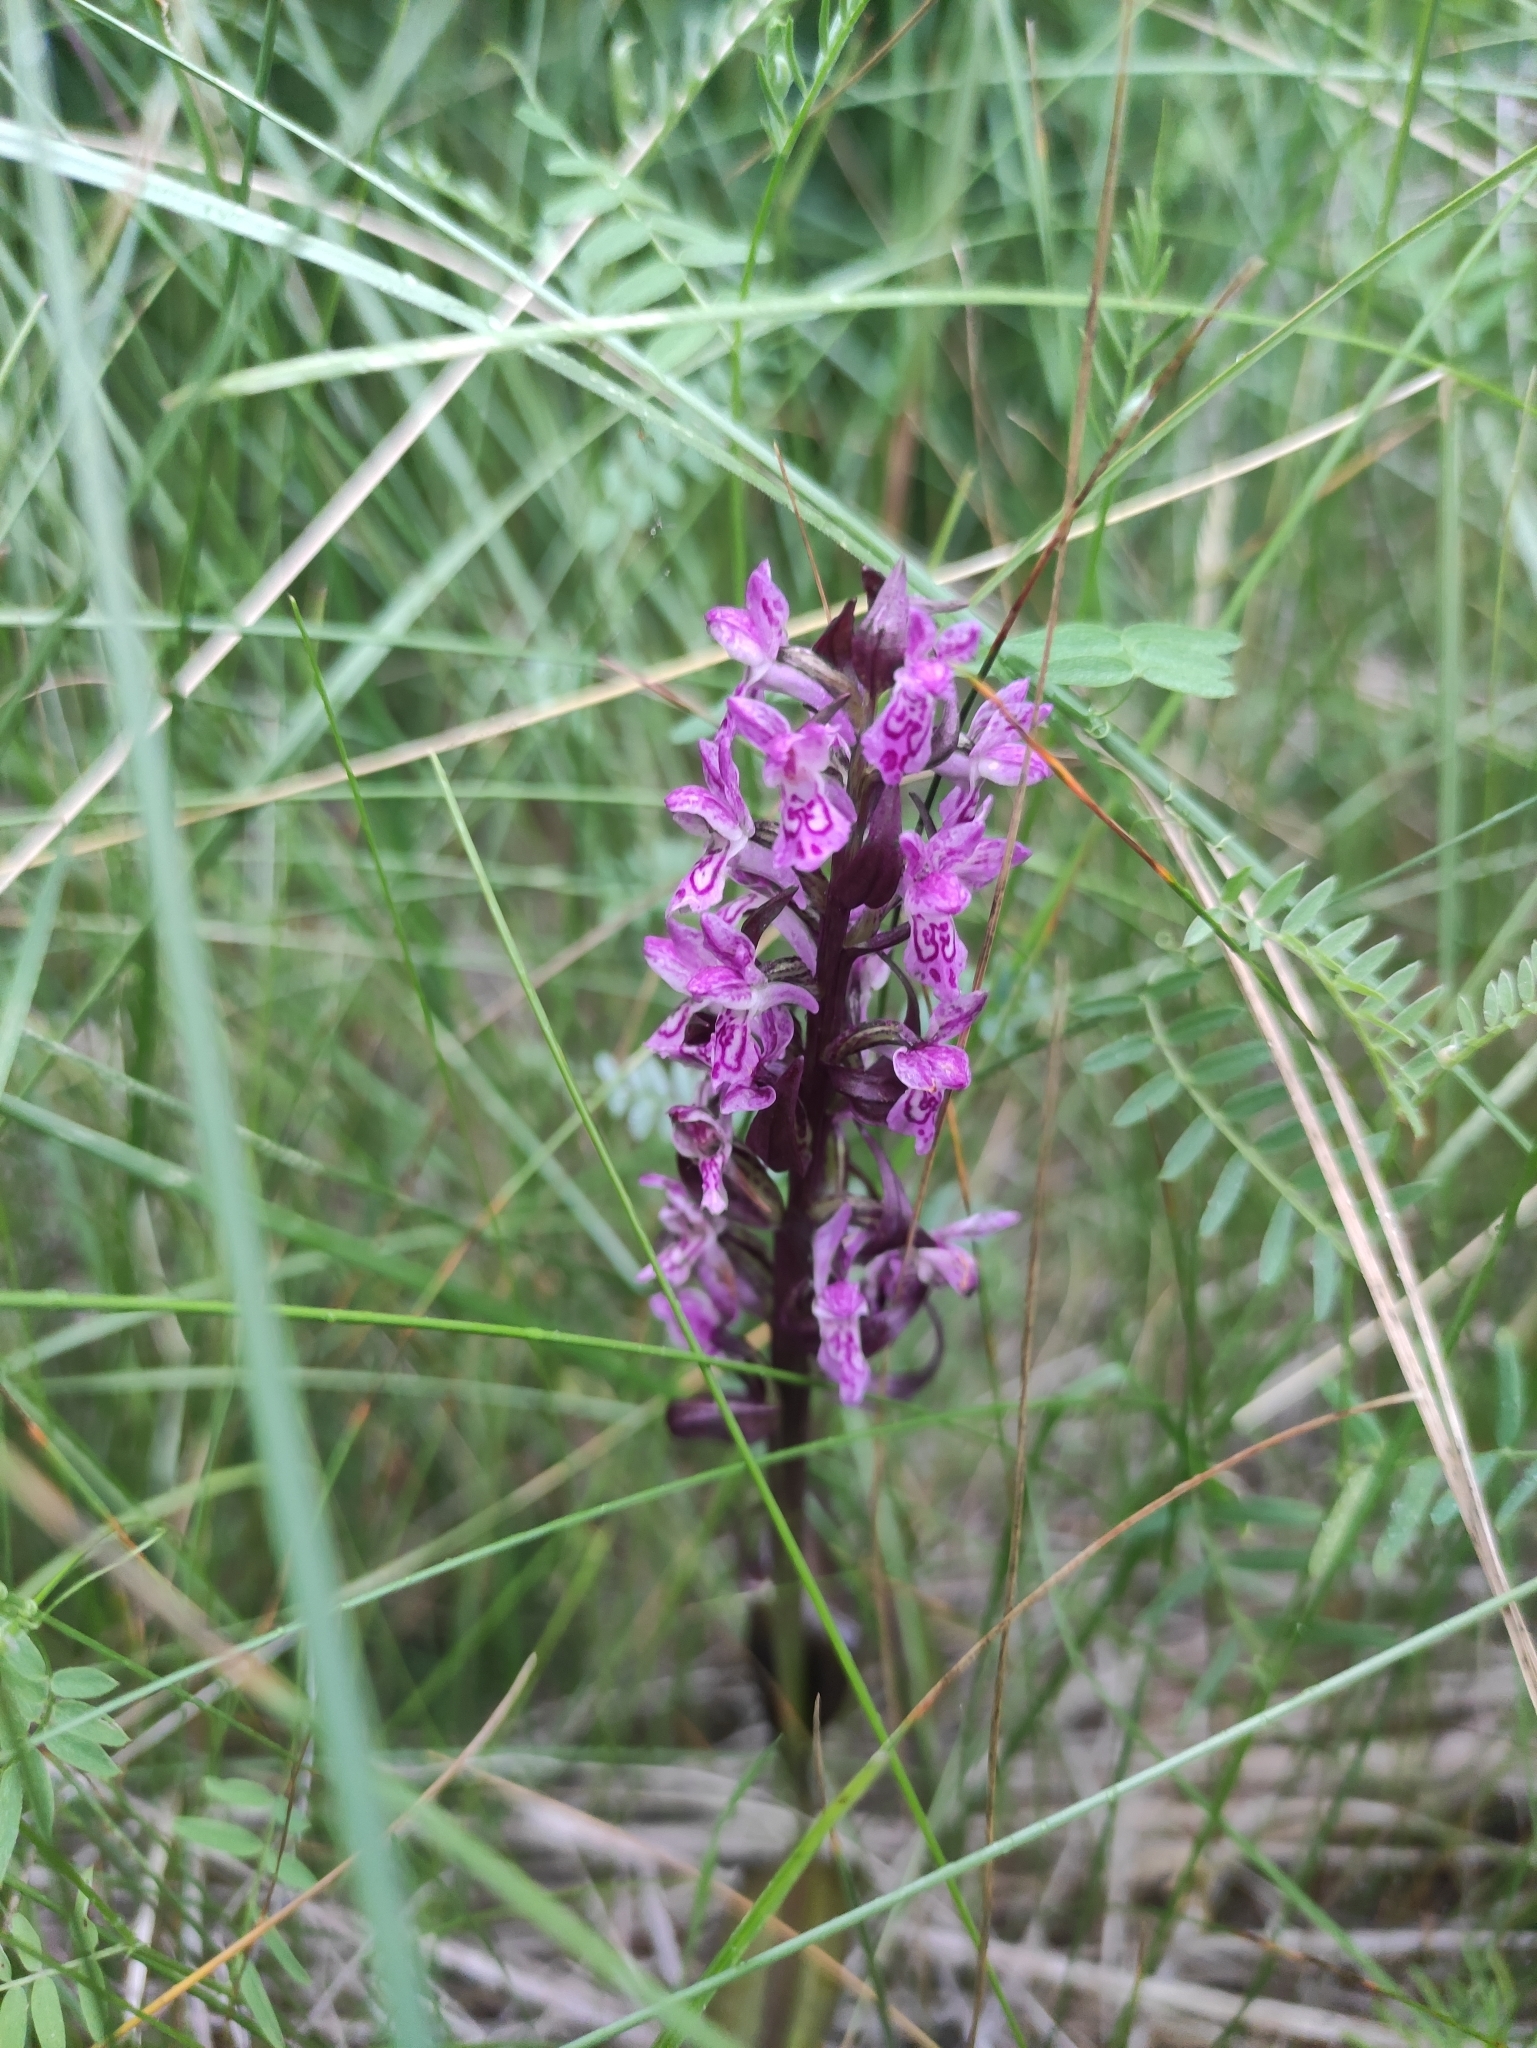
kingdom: Plantae
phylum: Tracheophyta
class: Liliopsida
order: Asparagales
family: Orchidaceae
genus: Dactylorhiza
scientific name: Dactylorhiza incarnata
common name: Early marsh-orchid
